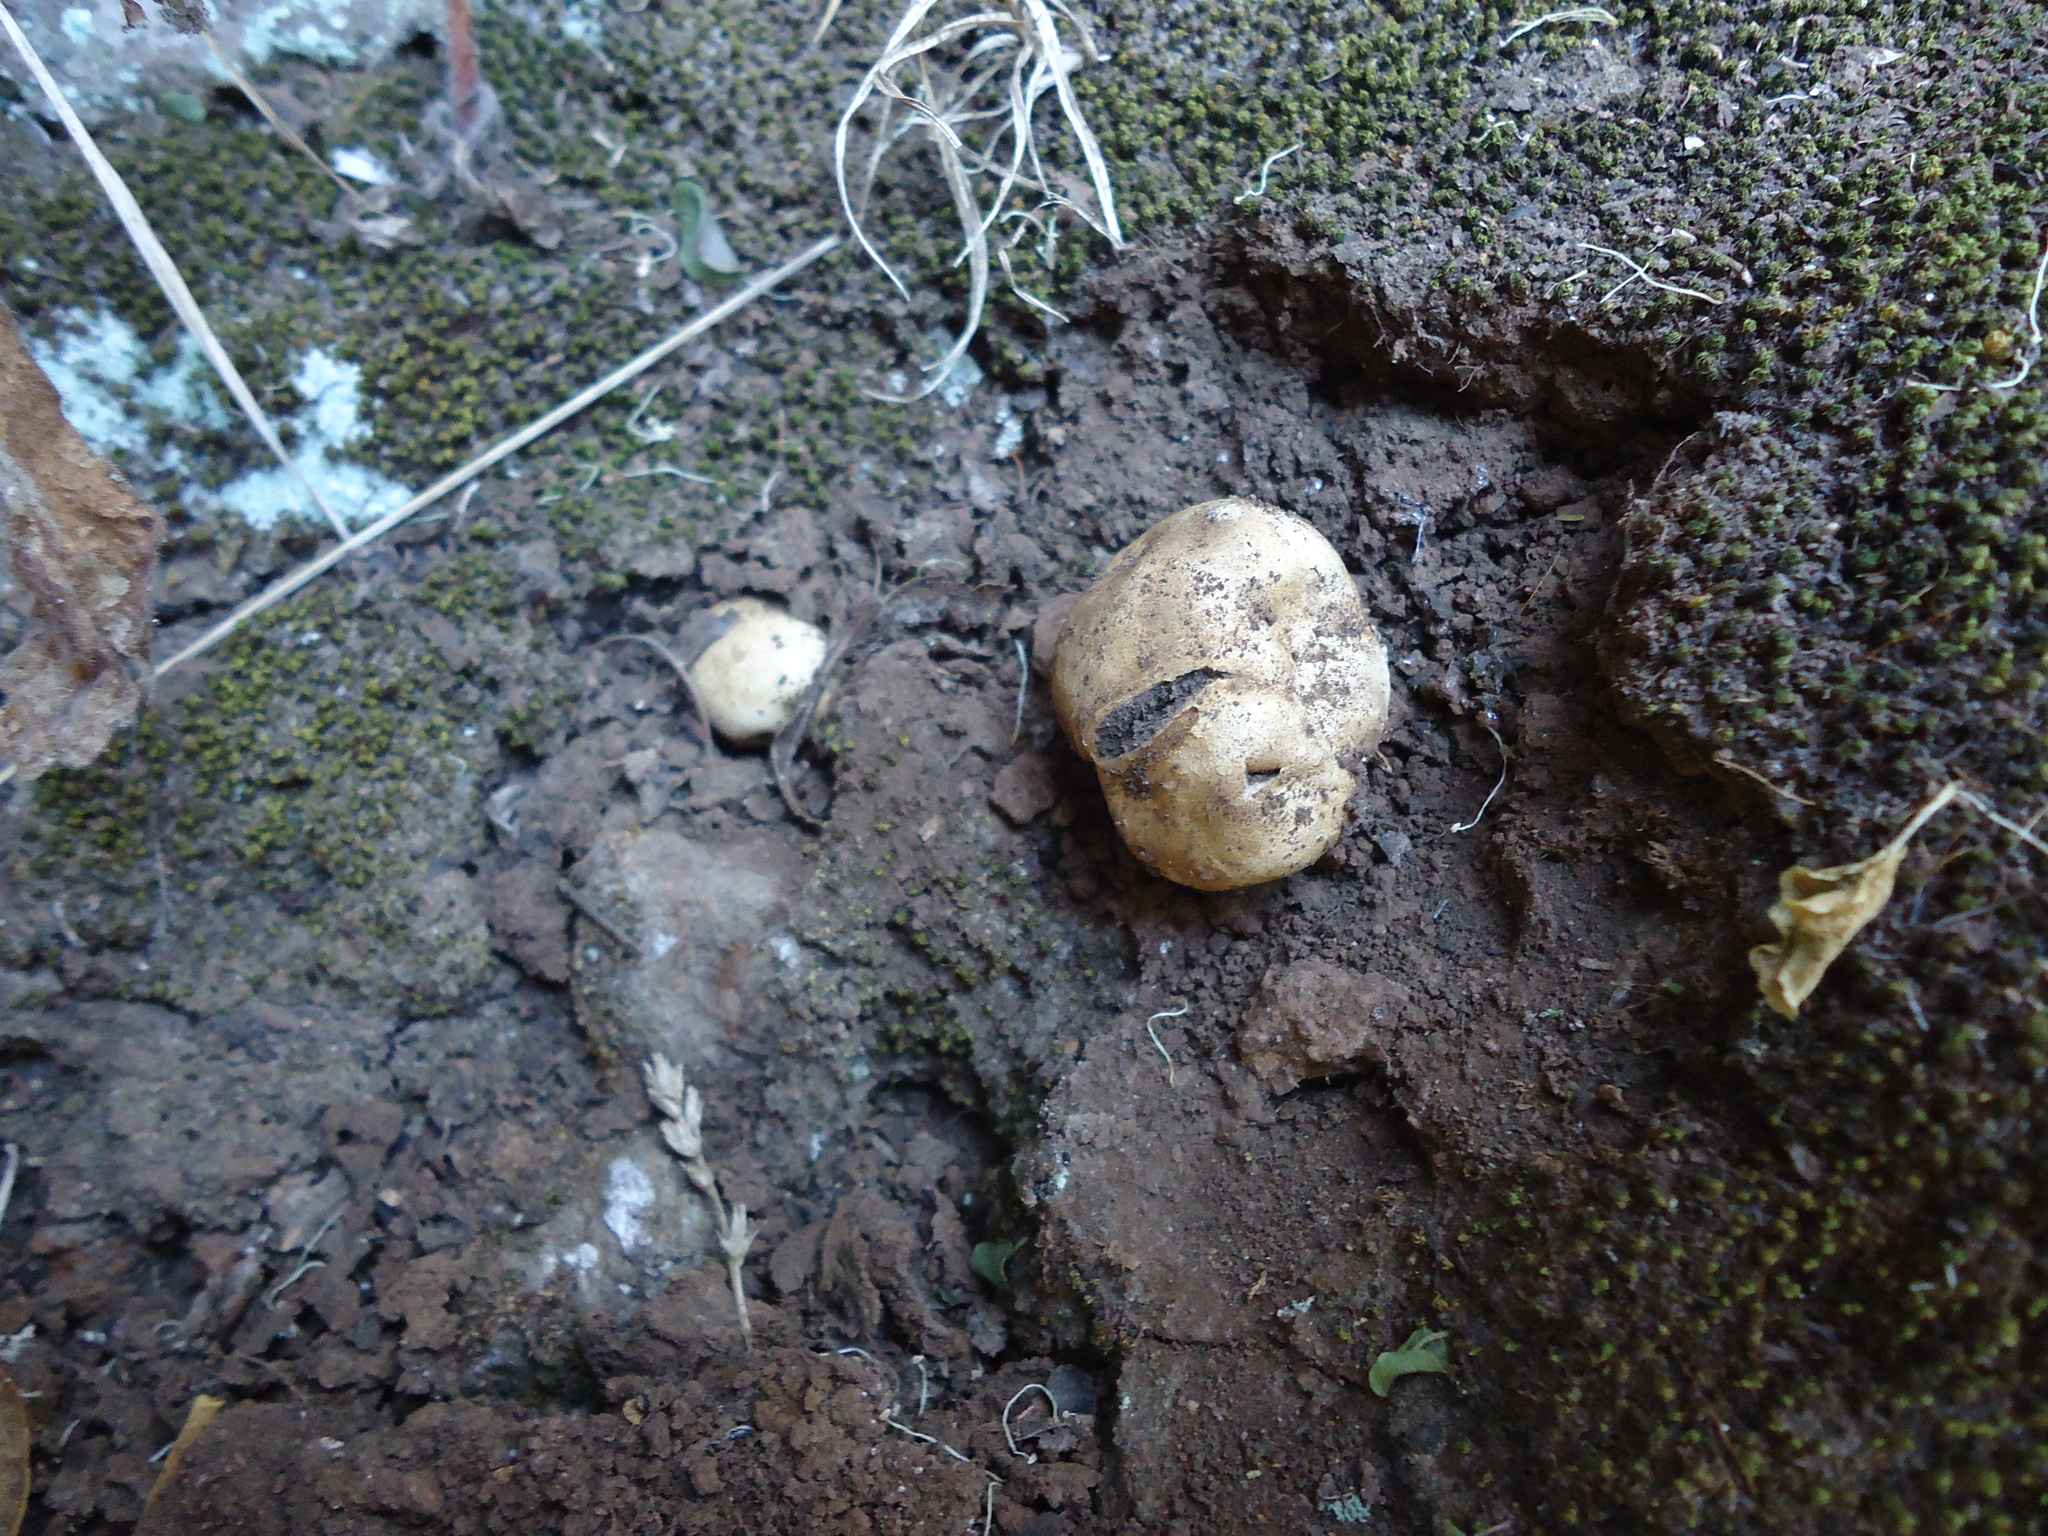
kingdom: Fungi
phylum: Basidiomycota
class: Agaricomycetes
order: Boletales
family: Sclerodermataceae
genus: Scleroderma
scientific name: Scleroderma cepa
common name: Onion earthball
